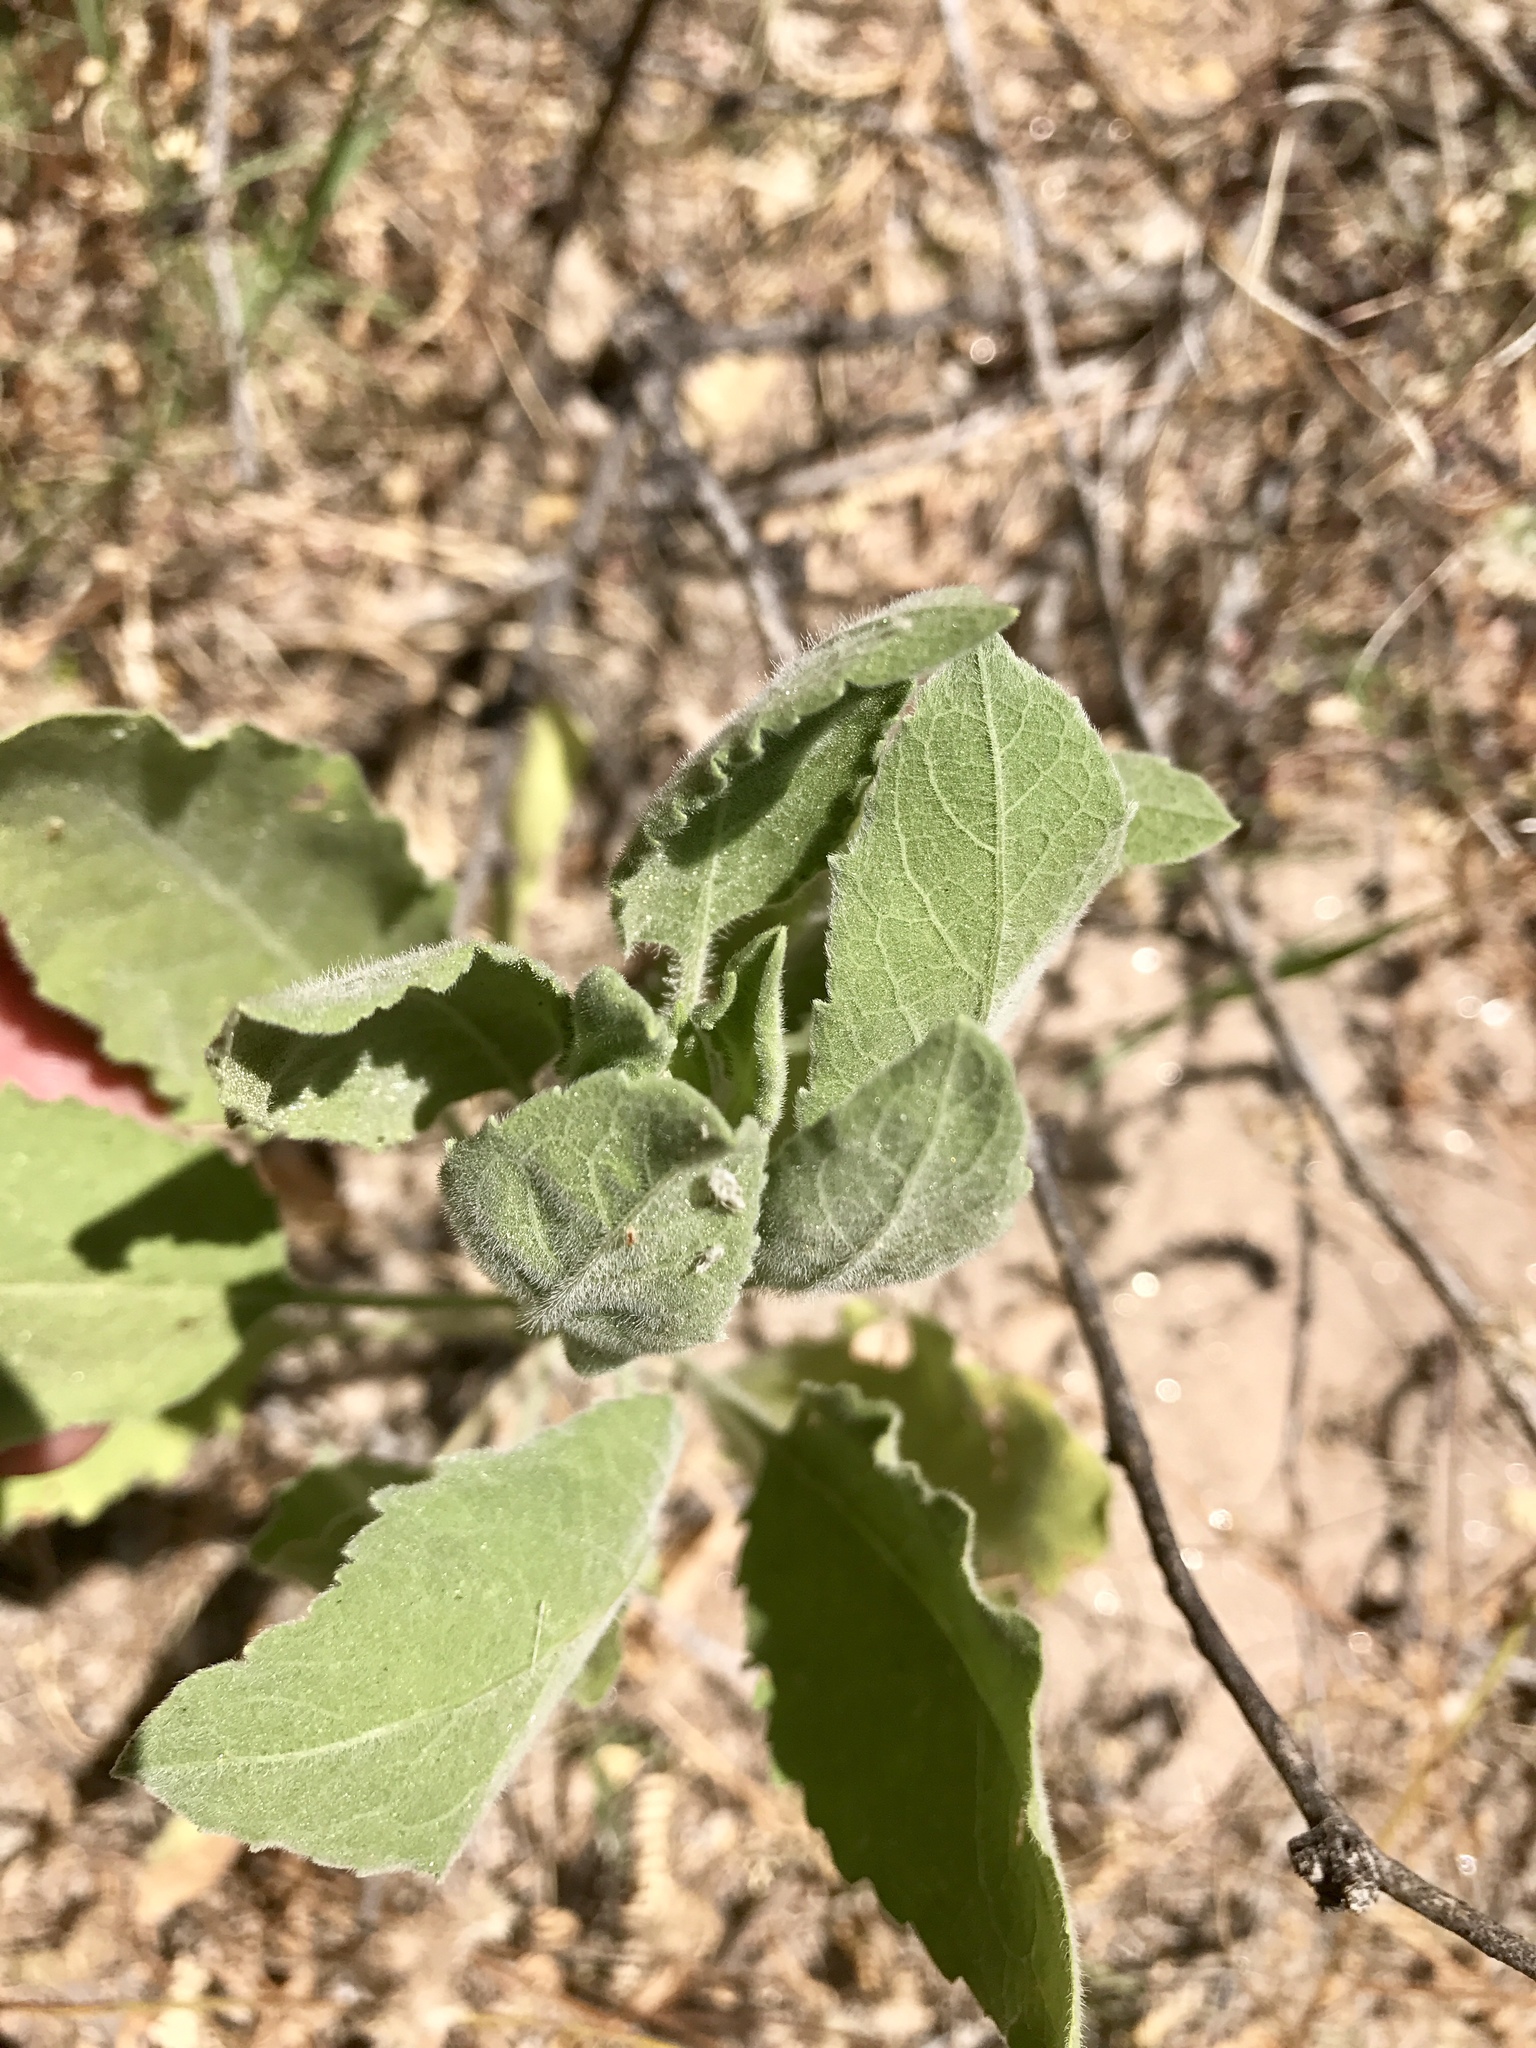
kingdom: Plantae
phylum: Tracheophyta
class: Magnoliopsida
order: Asterales
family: Asteraceae
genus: Heterotheca
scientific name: Heterotheca subaxillaris
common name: Camphorweed
